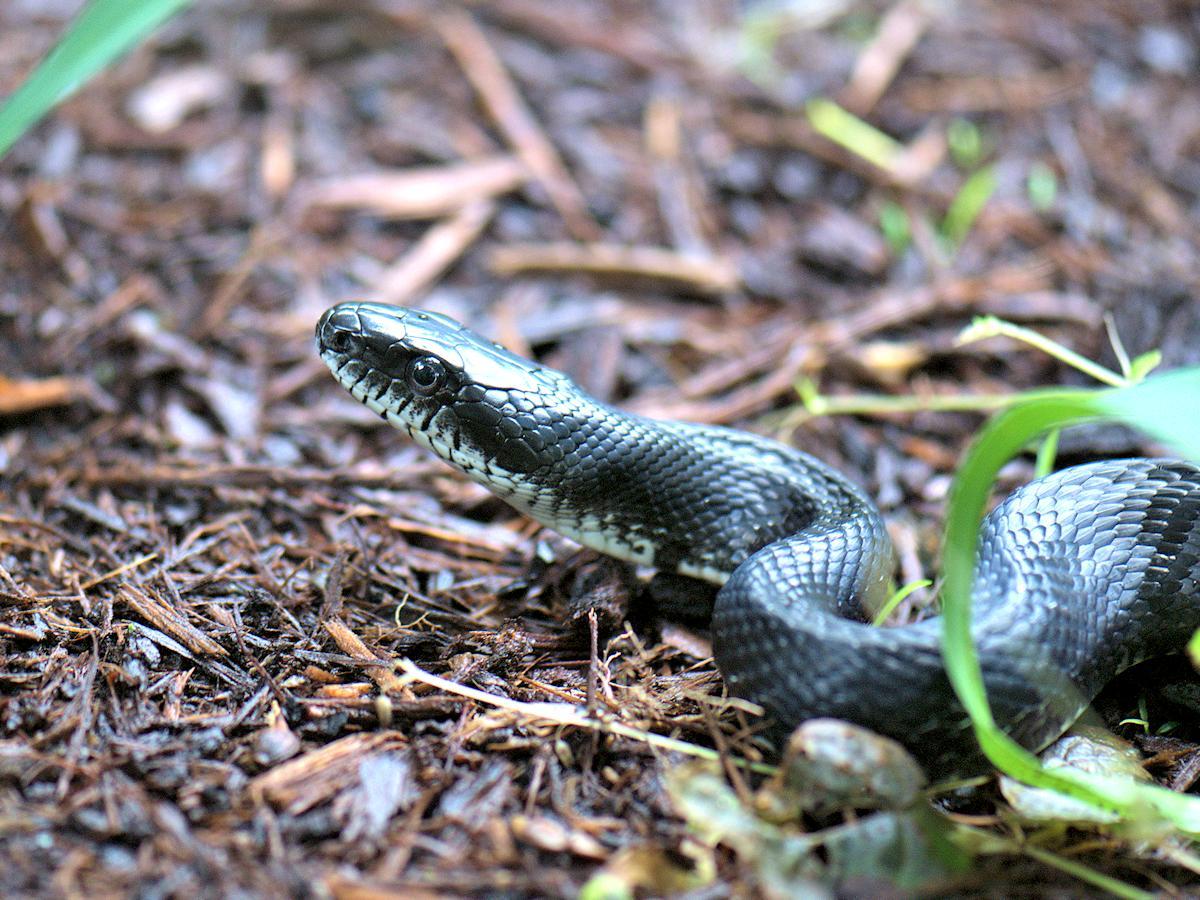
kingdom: Animalia
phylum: Chordata
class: Squamata
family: Colubridae
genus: Pantherophis
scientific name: Pantherophis alleghaniensis
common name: Eastern rat snake
